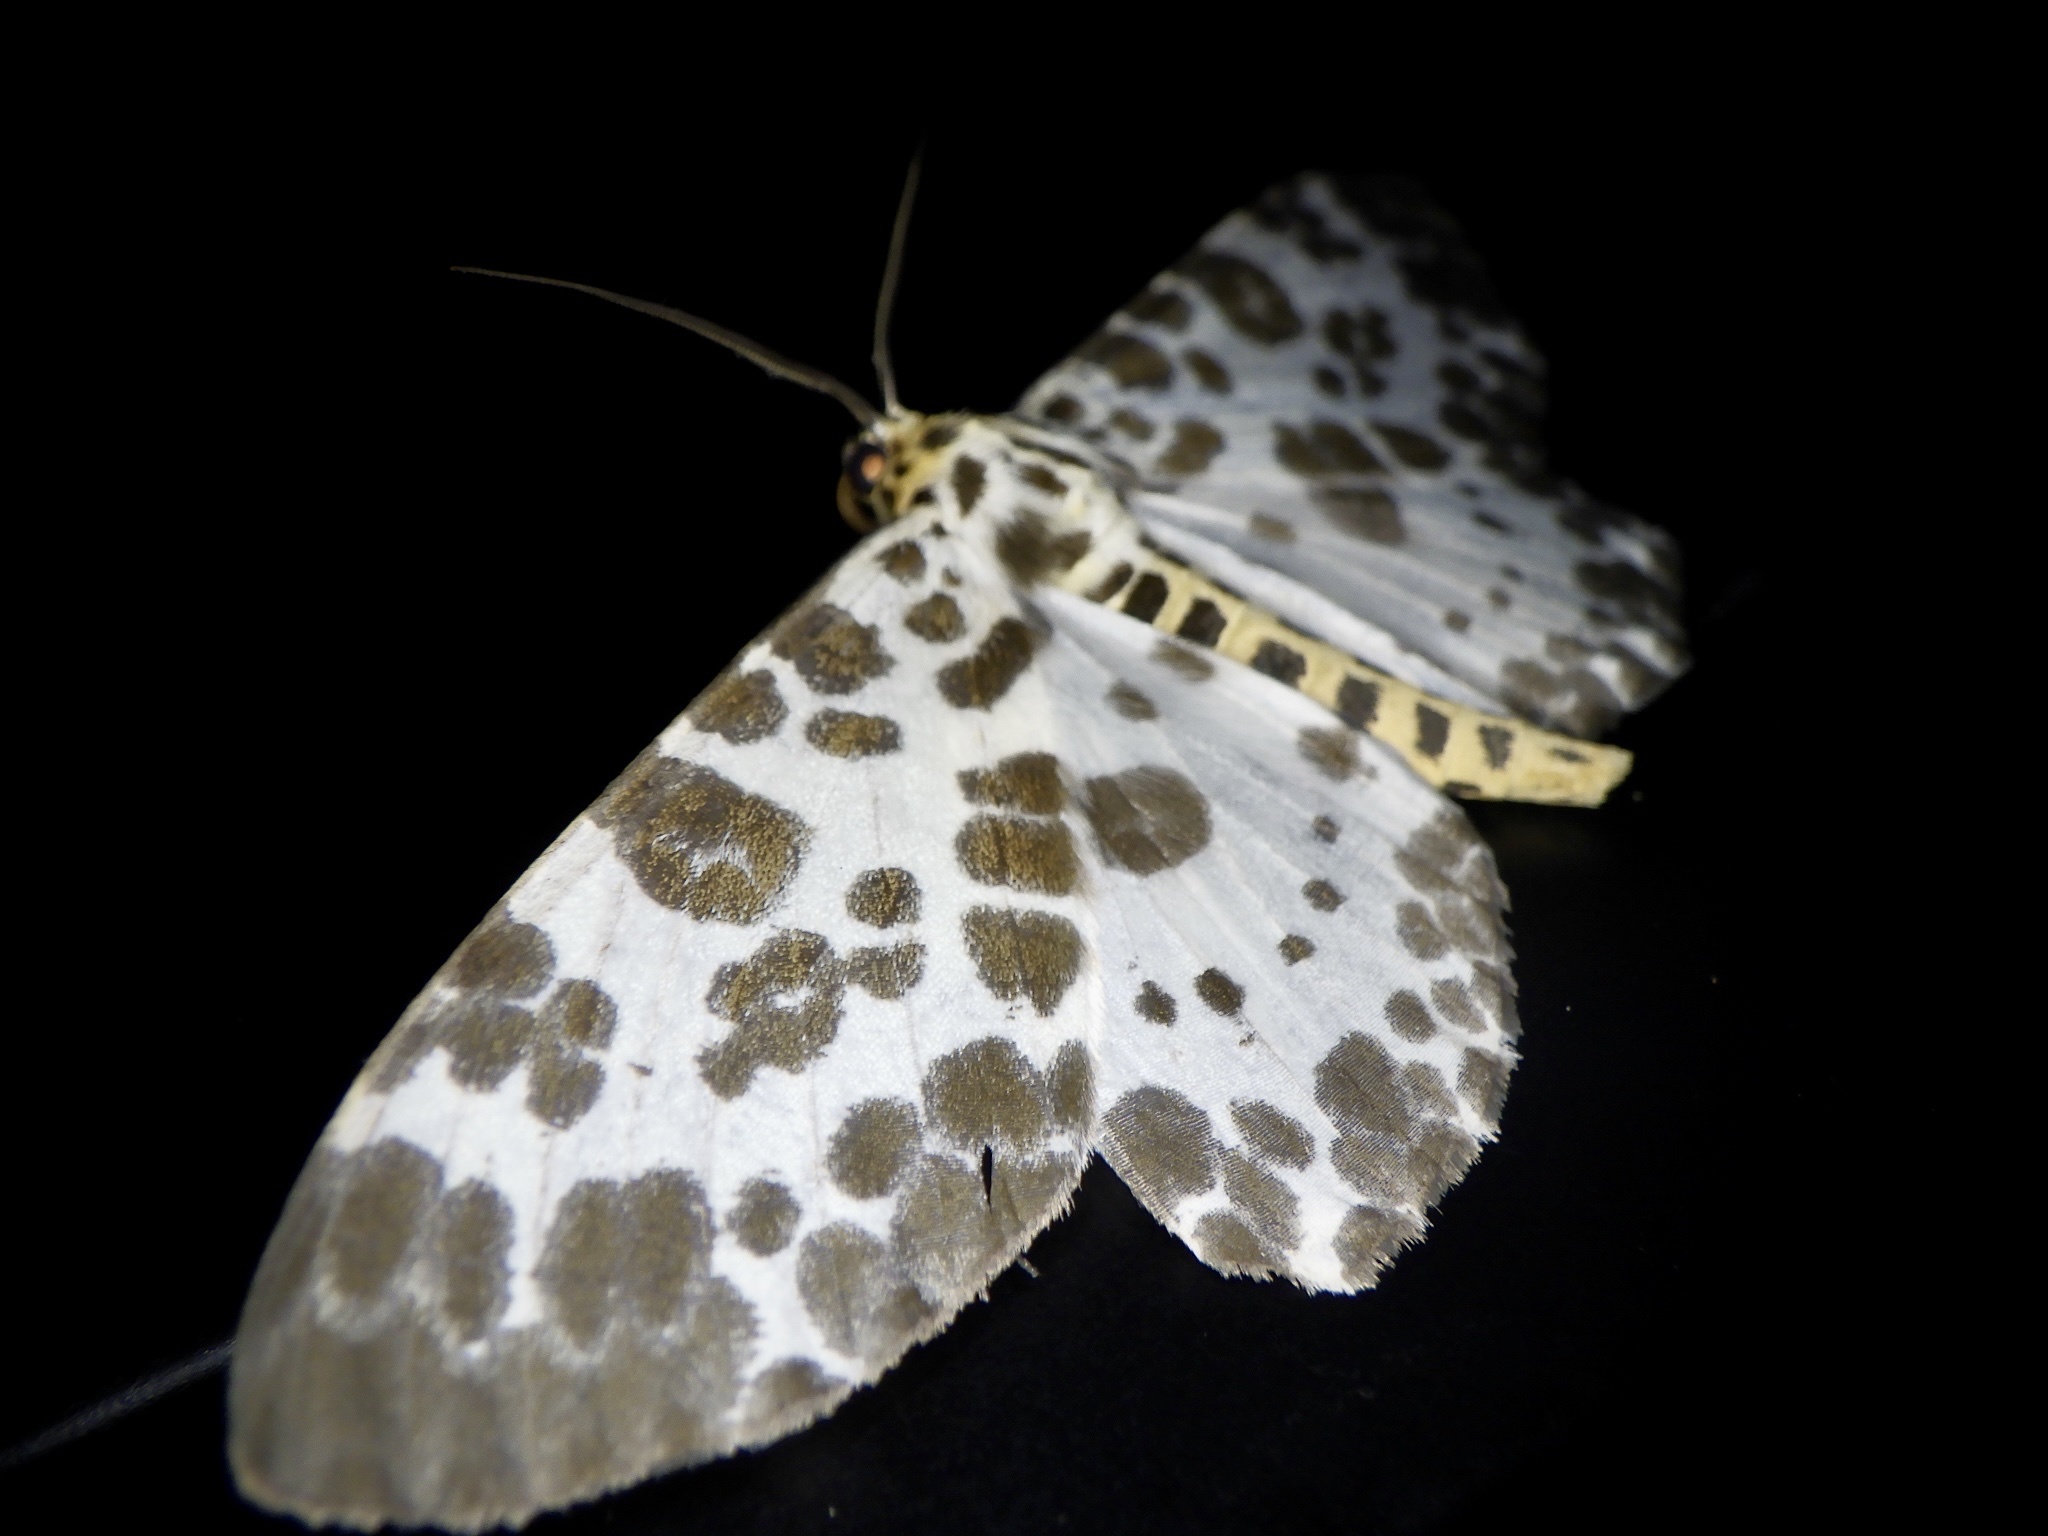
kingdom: Animalia
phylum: Arthropoda
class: Insecta
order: Lepidoptera
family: Geometridae
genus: Parapercnia
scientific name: Parapercnia giraffata
